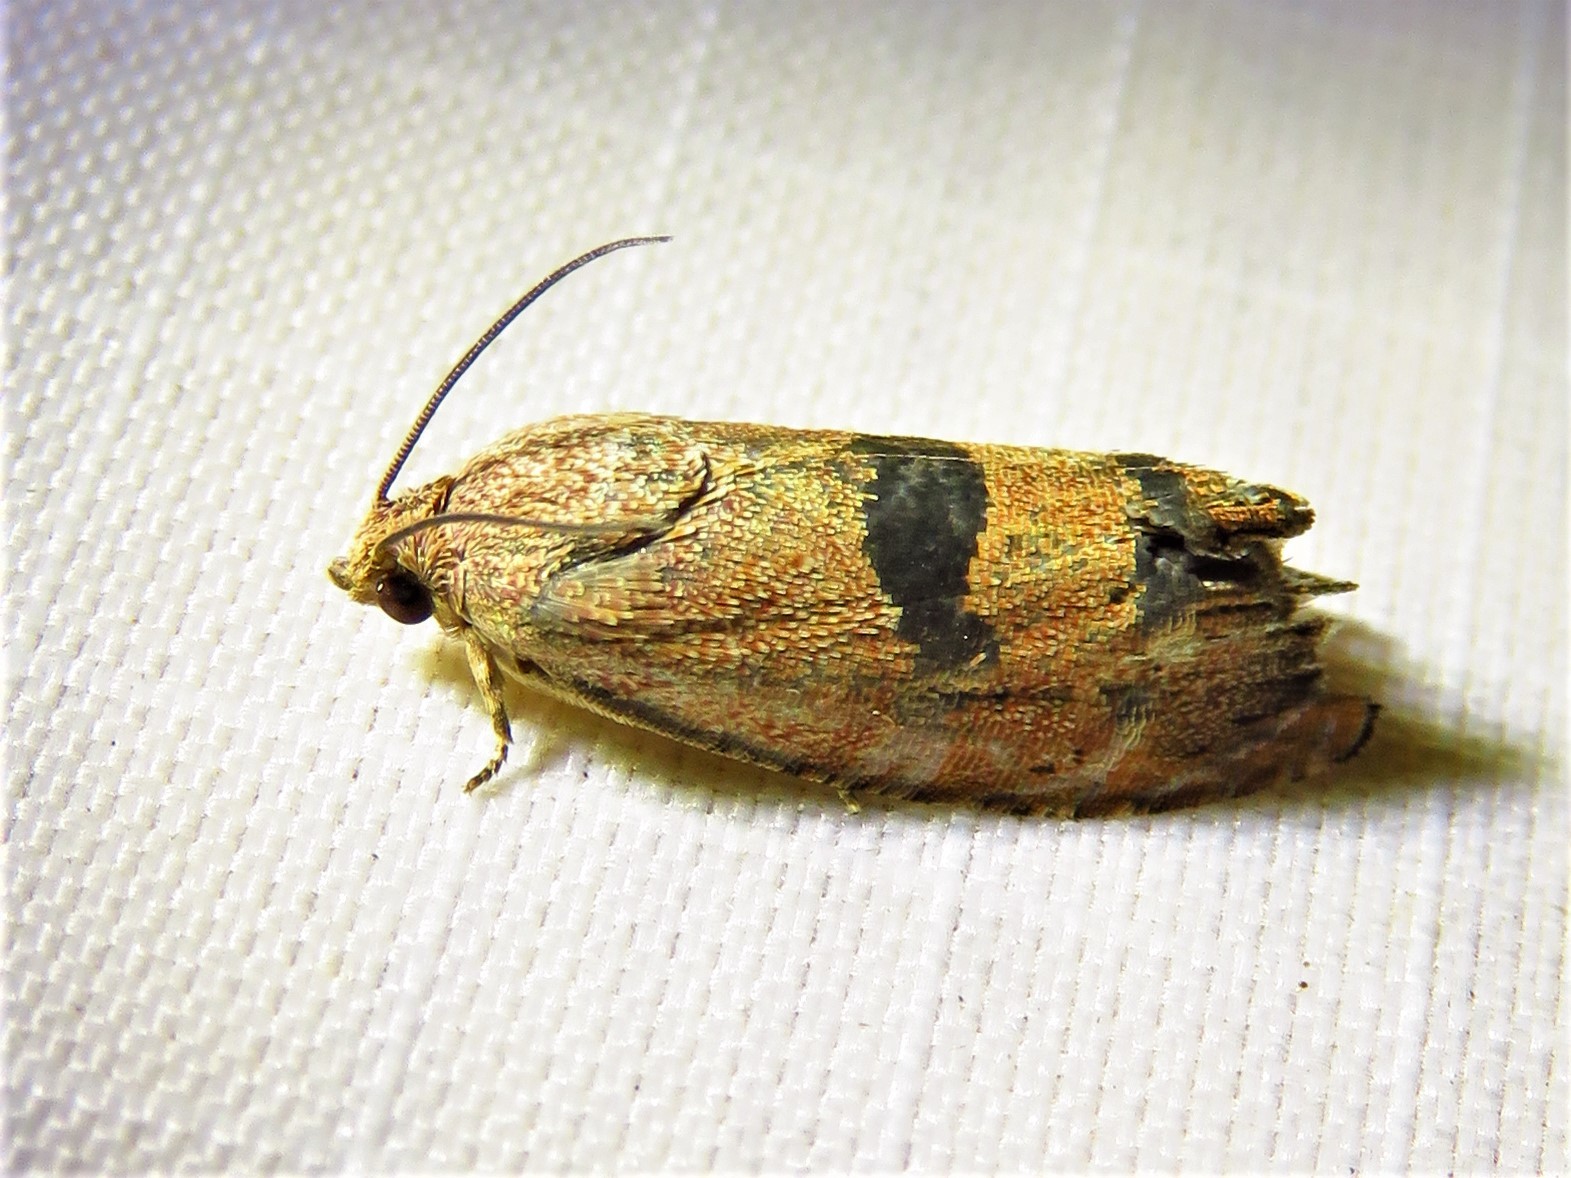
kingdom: Animalia
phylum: Arthropoda
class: Insecta
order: Lepidoptera
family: Tortricidae
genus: Cydia
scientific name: Cydia latiferreana
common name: Filbertworm moth
